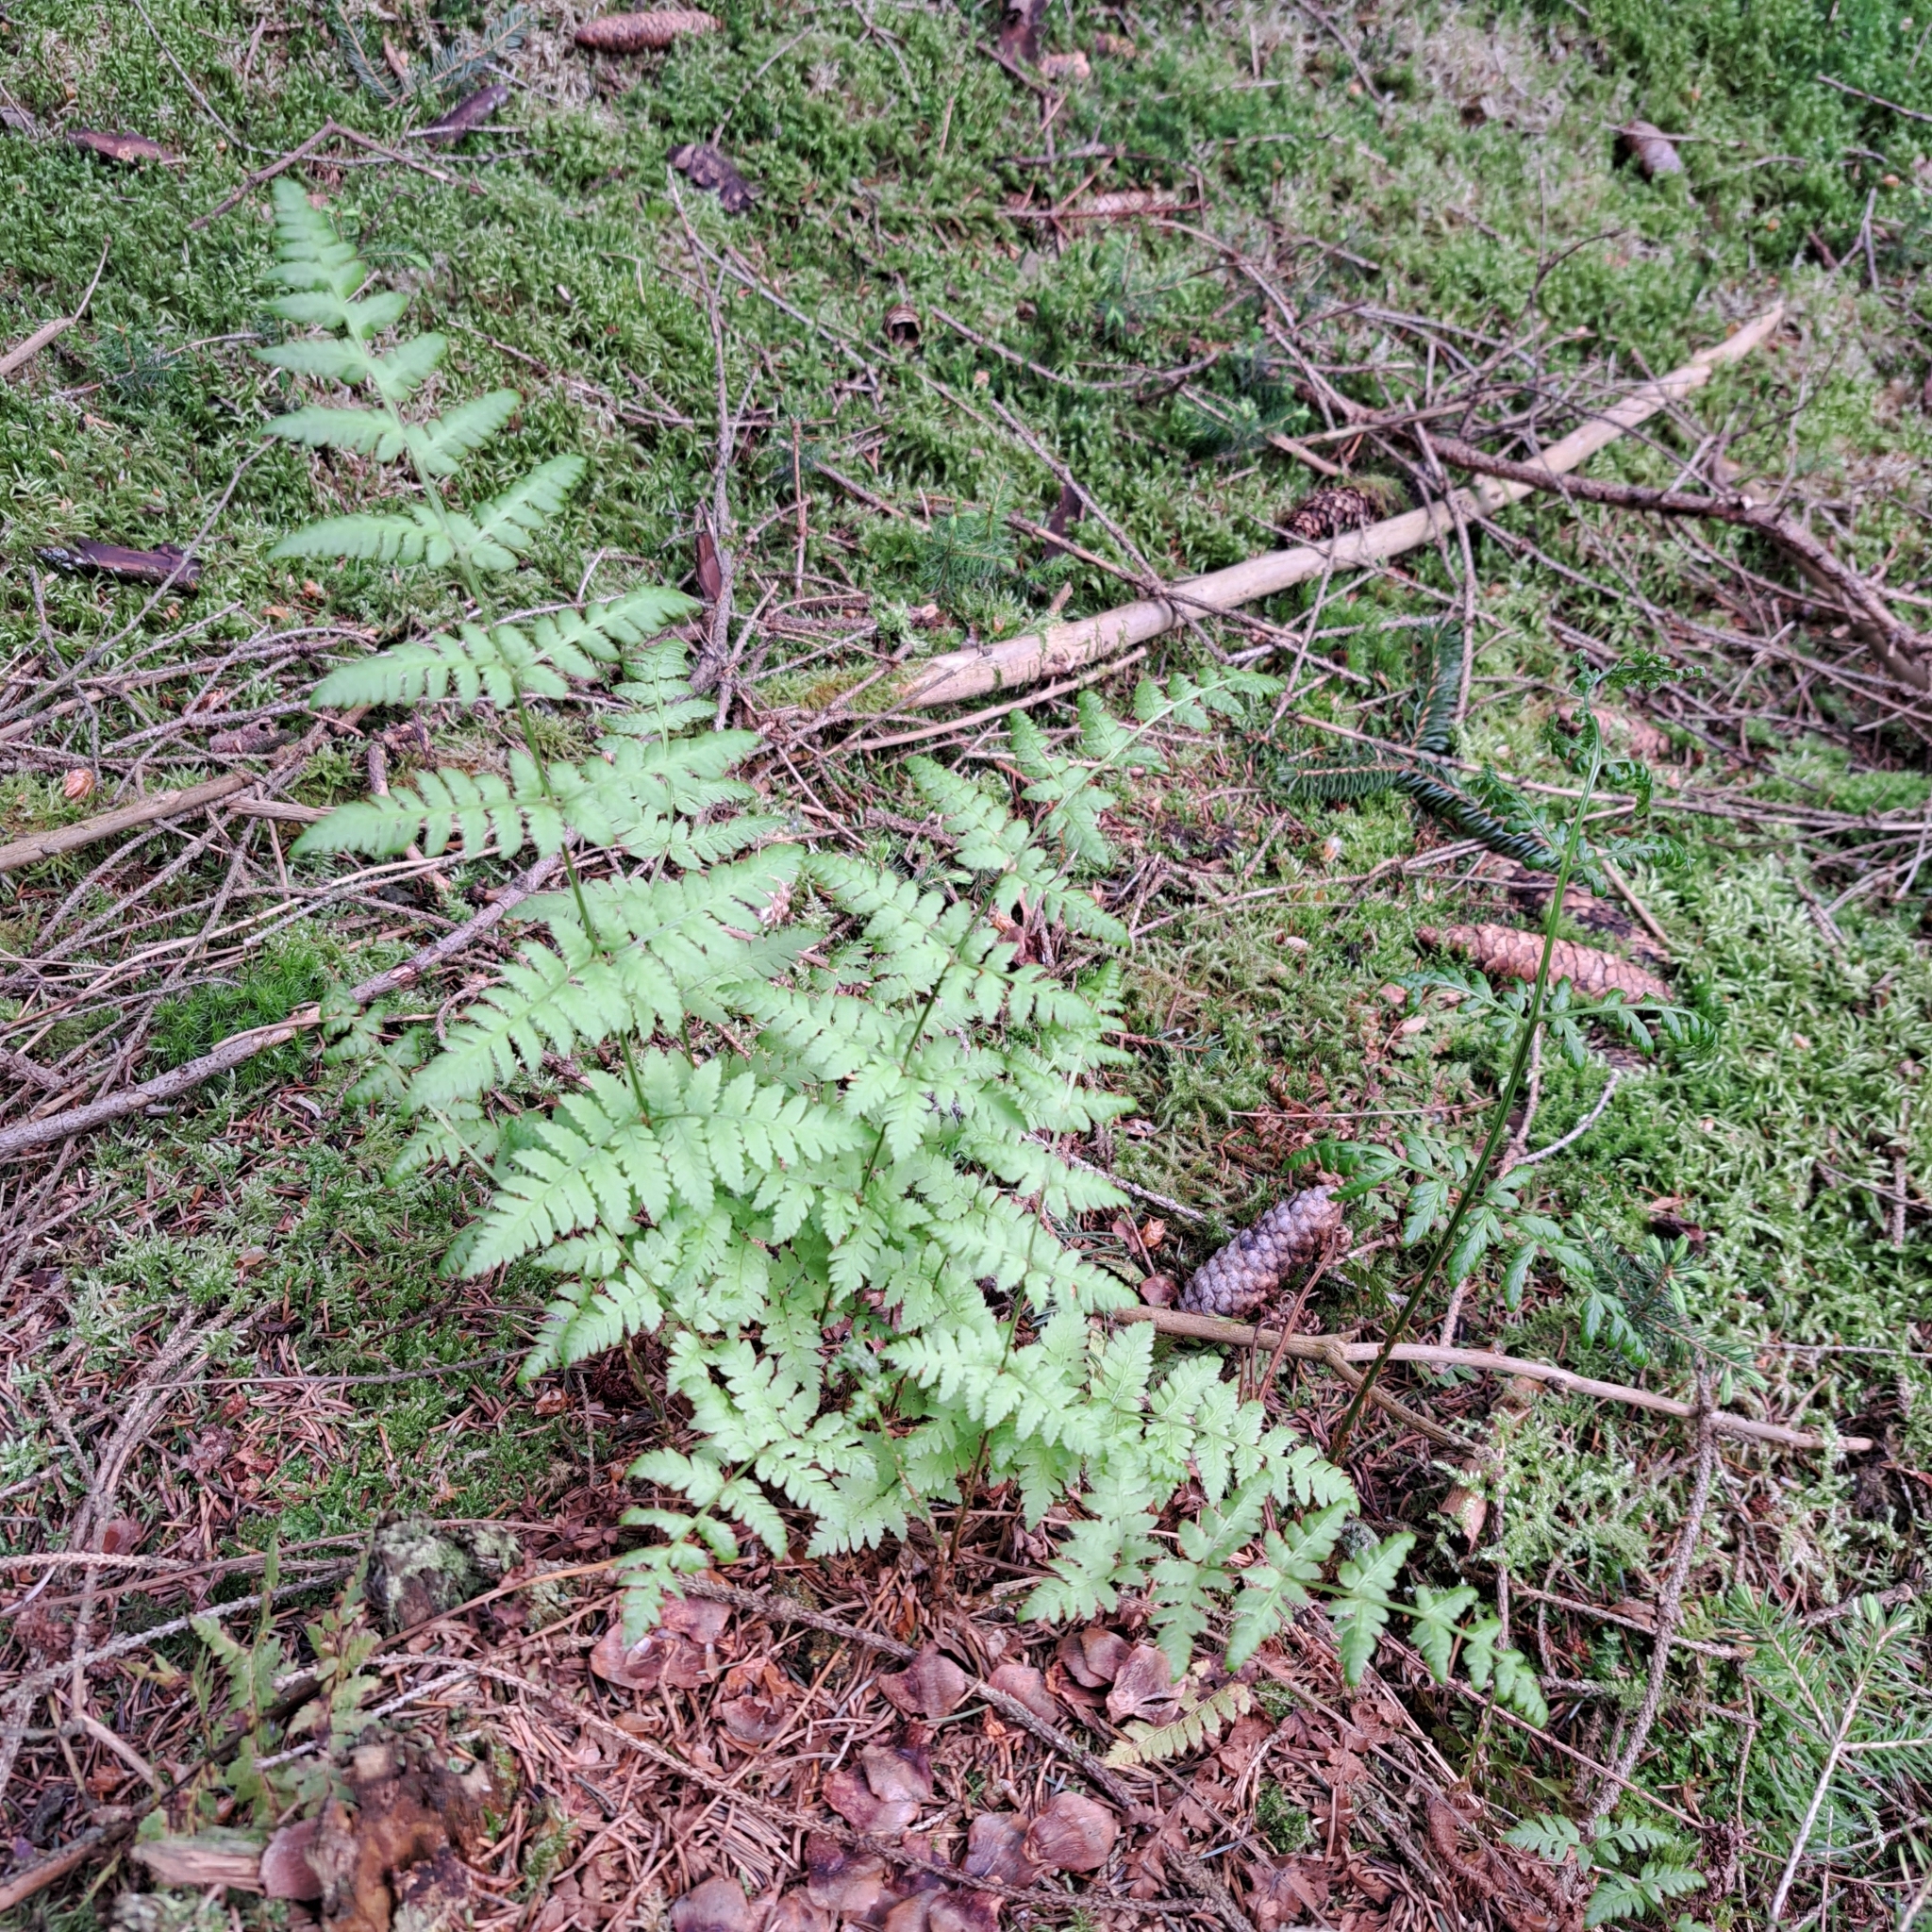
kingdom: Plantae
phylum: Tracheophyta
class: Polypodiopsida
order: Polypodiales
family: Dryopteridaceae
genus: Dryopteris
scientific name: Dryopteris carthusiana
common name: Narrow buckler-fern
